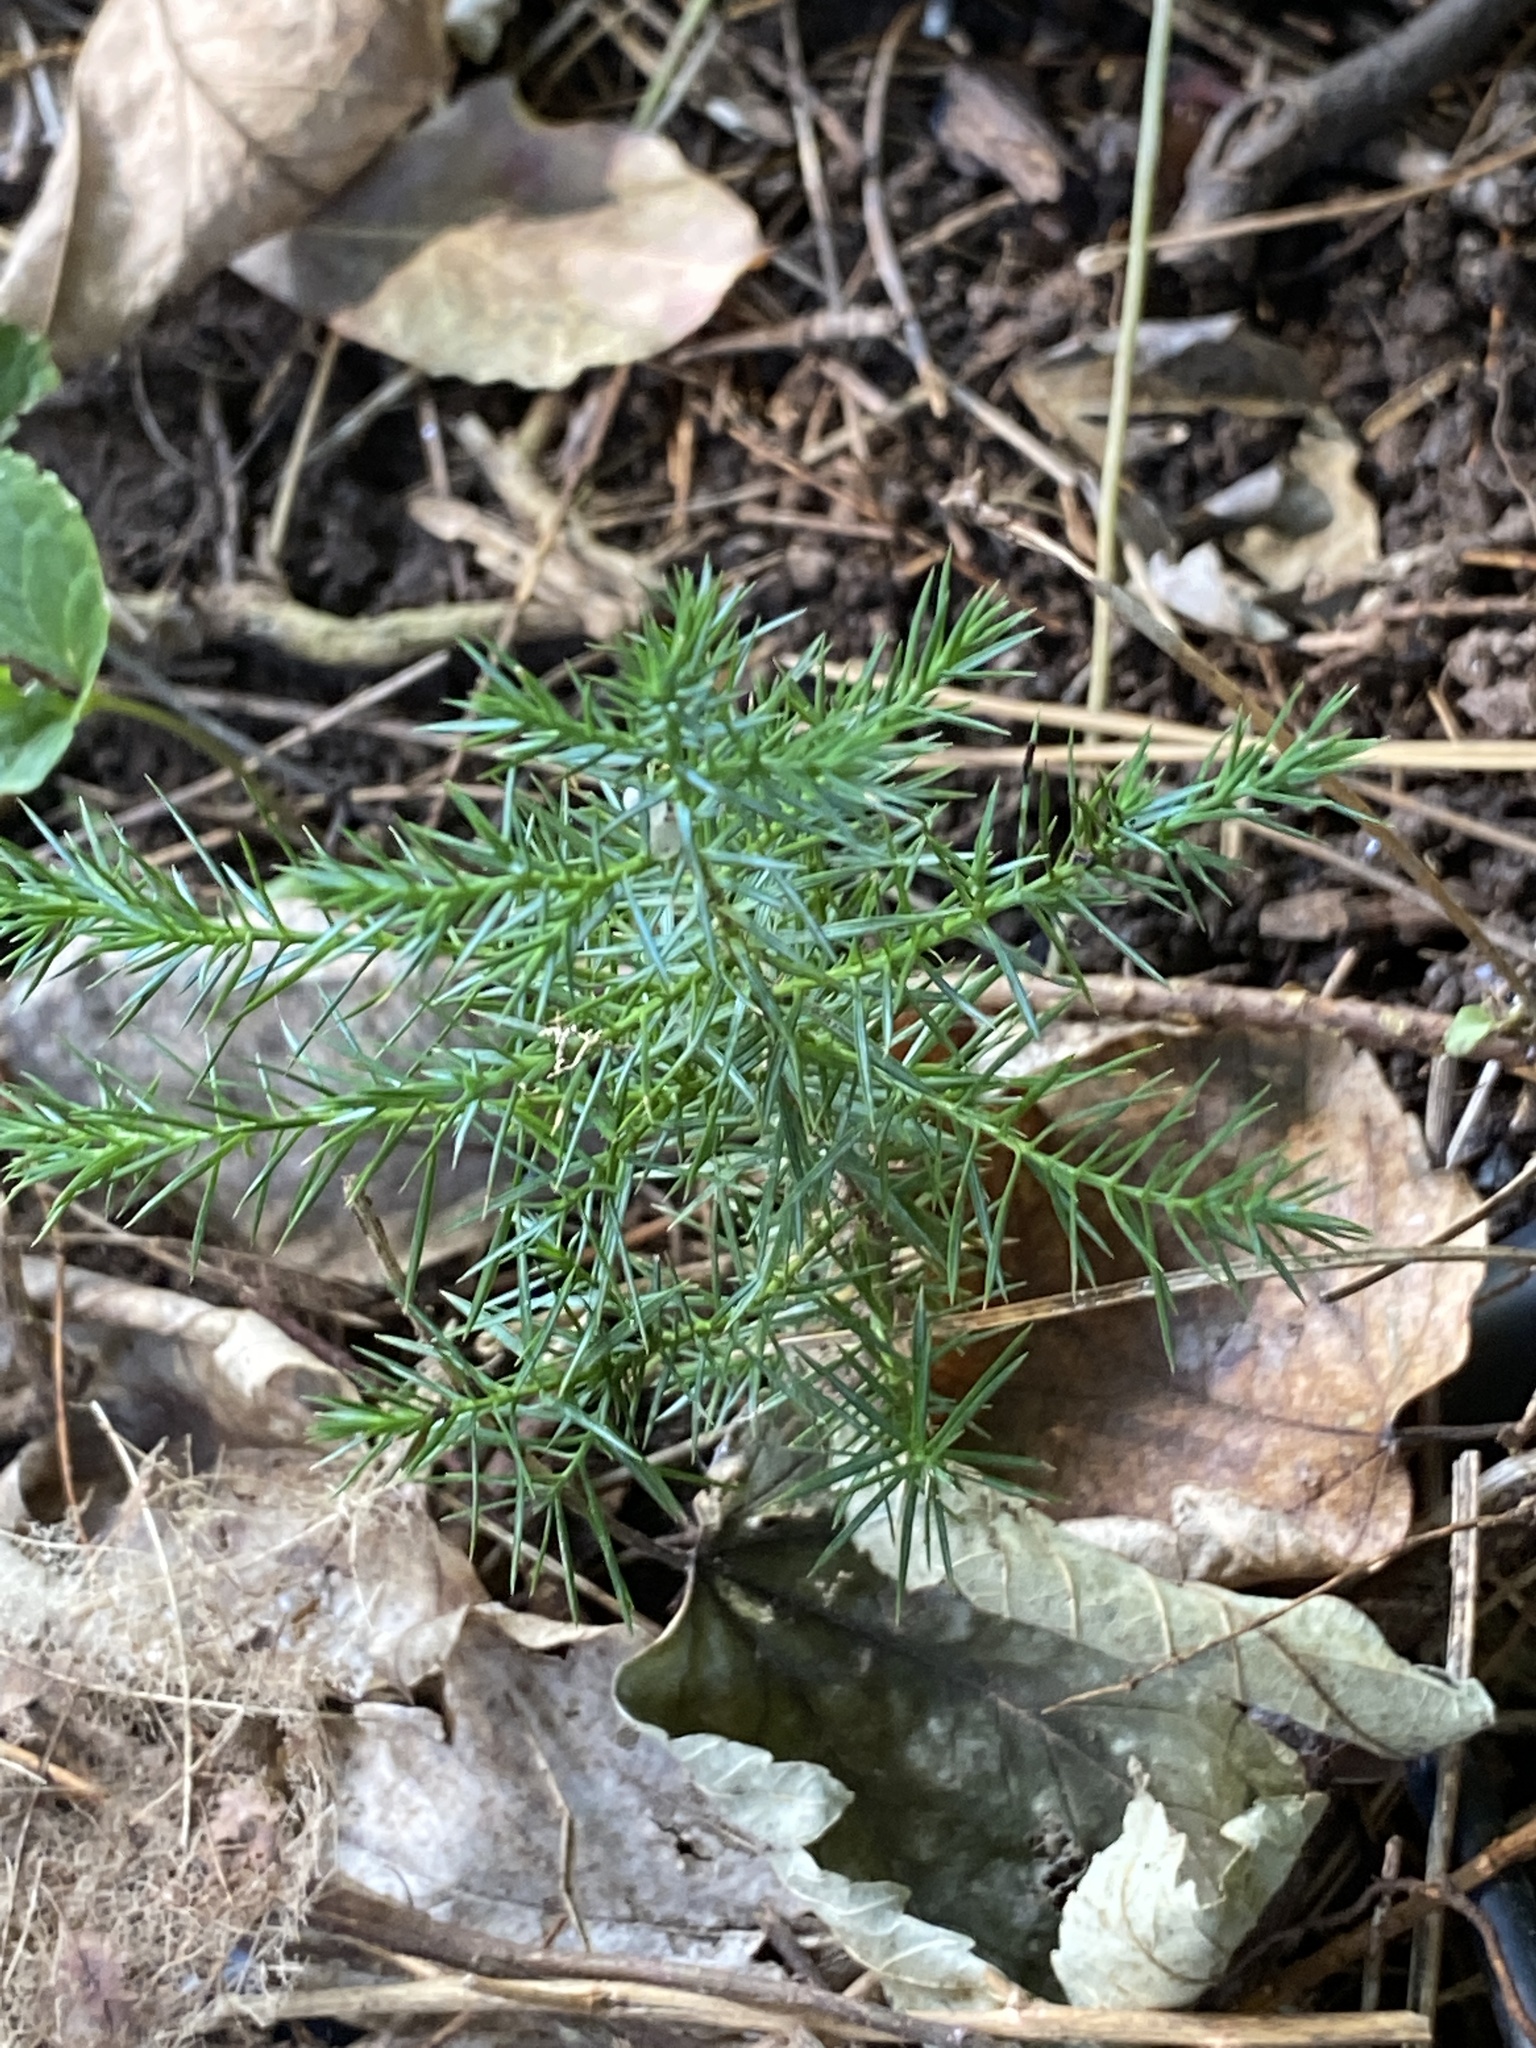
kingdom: Plantae
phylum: Tracheophyta
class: Pinopsida
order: Pinales
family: Cupressaceae
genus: Juniperus
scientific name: Juniperus virginiana
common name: Red juniper
